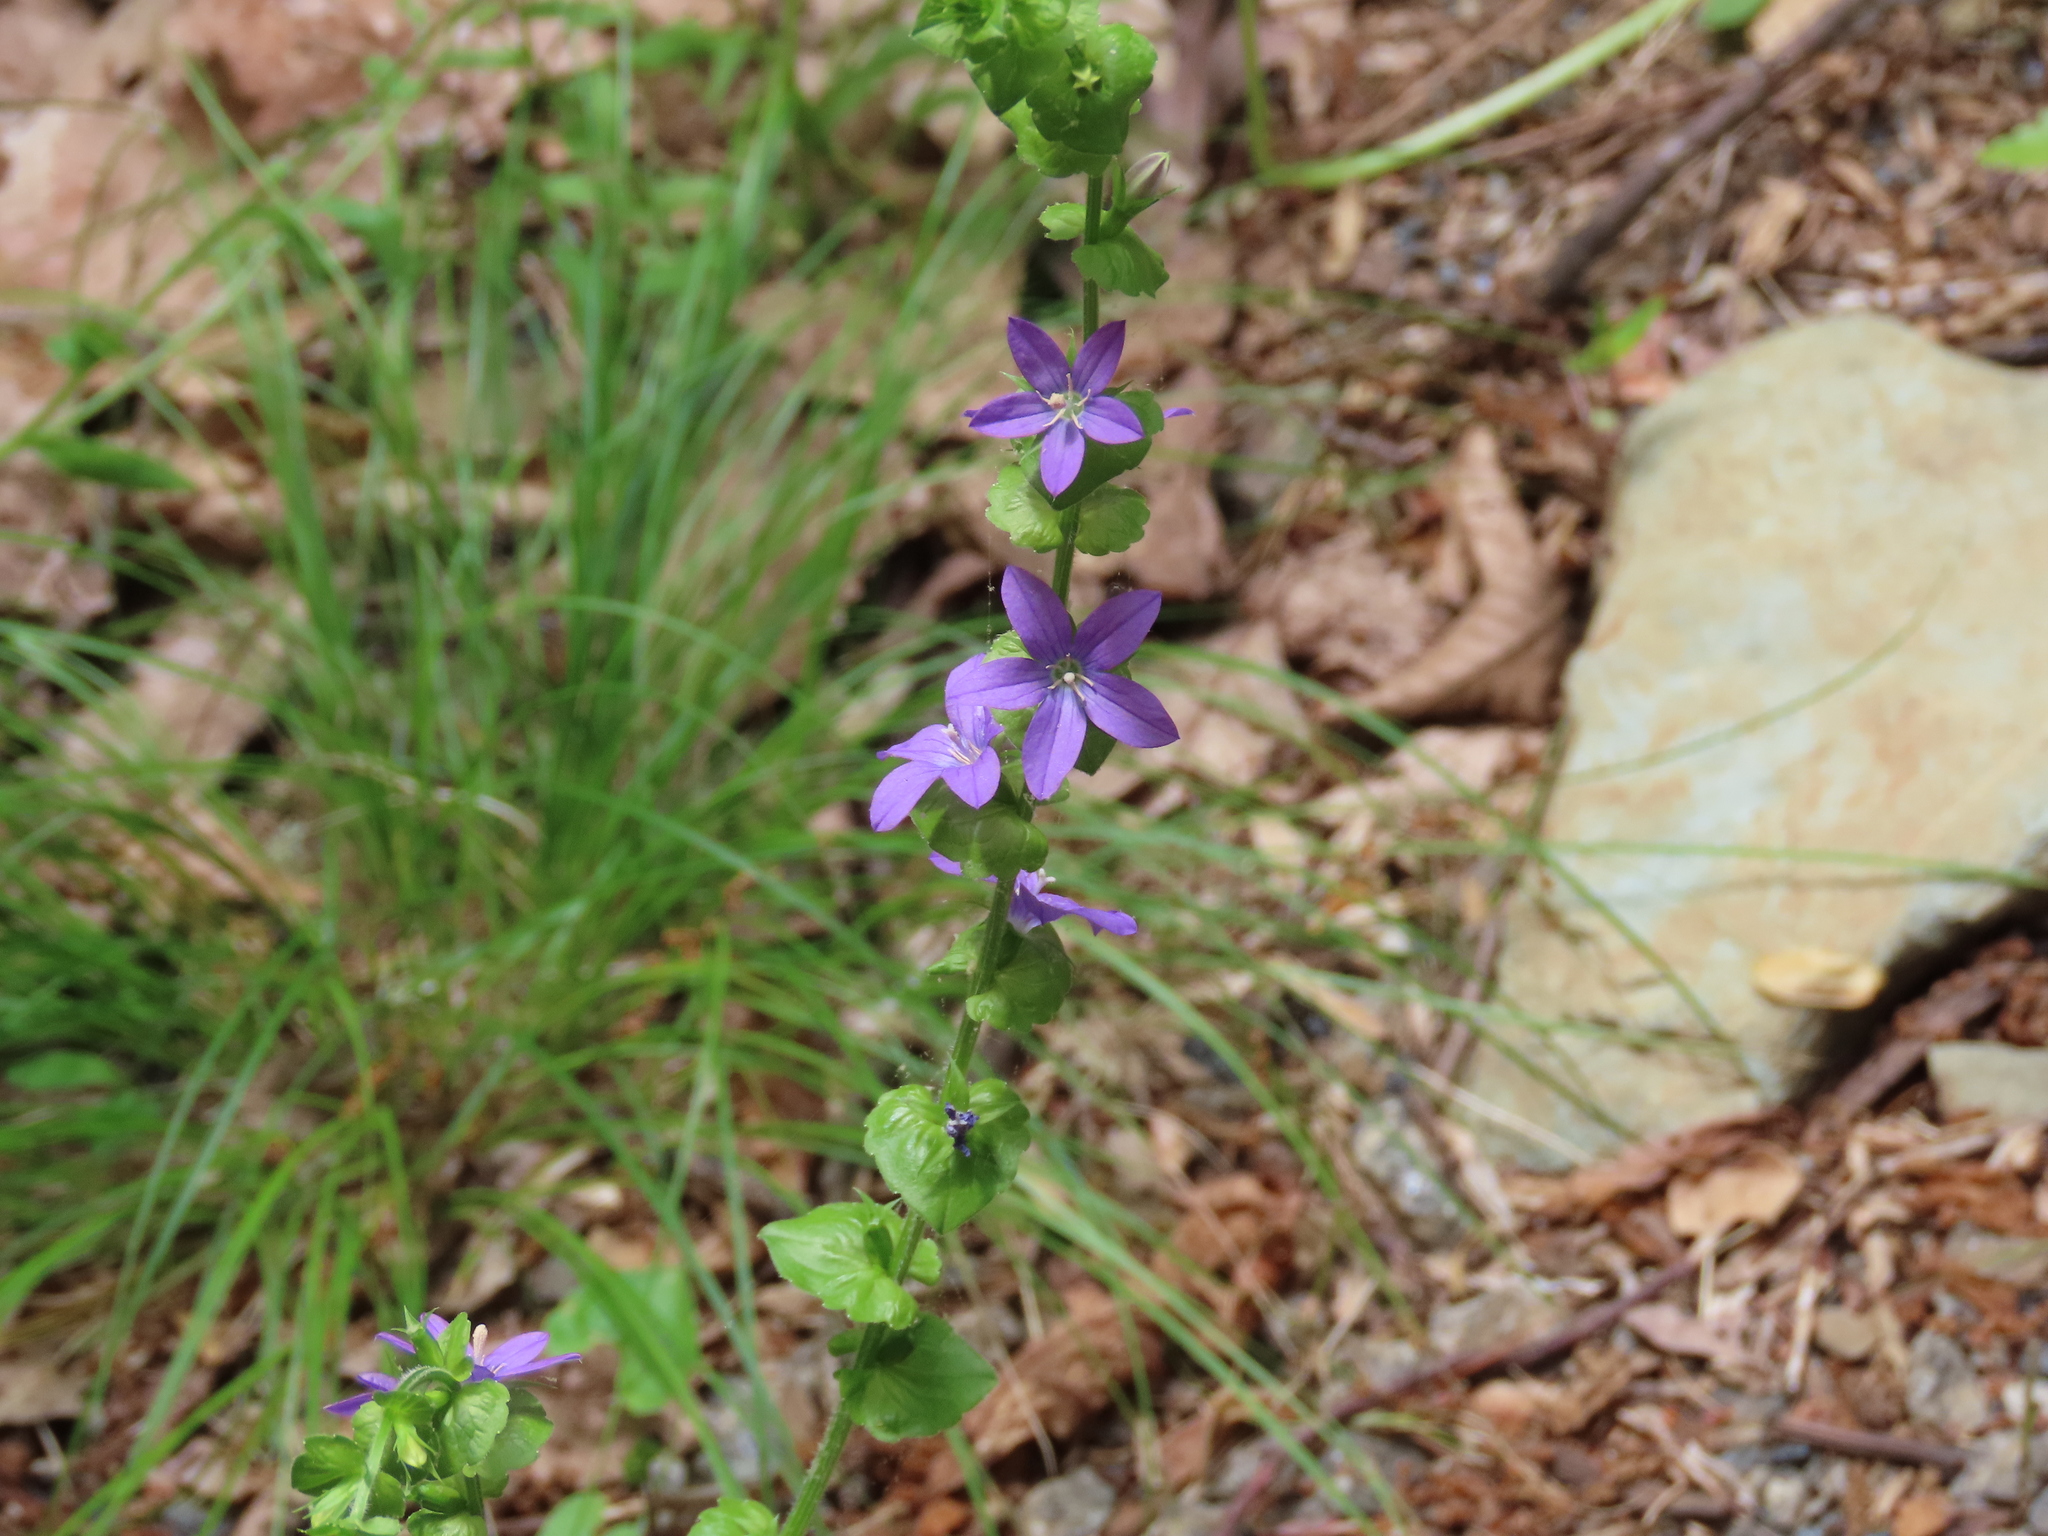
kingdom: Plantae
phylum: Tracheophyta
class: Magnoliopsida
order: Asterales
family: Campanulaceae
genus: Triodanis
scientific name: Triodanis perfoliata
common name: Clasping venus' looking-glass
